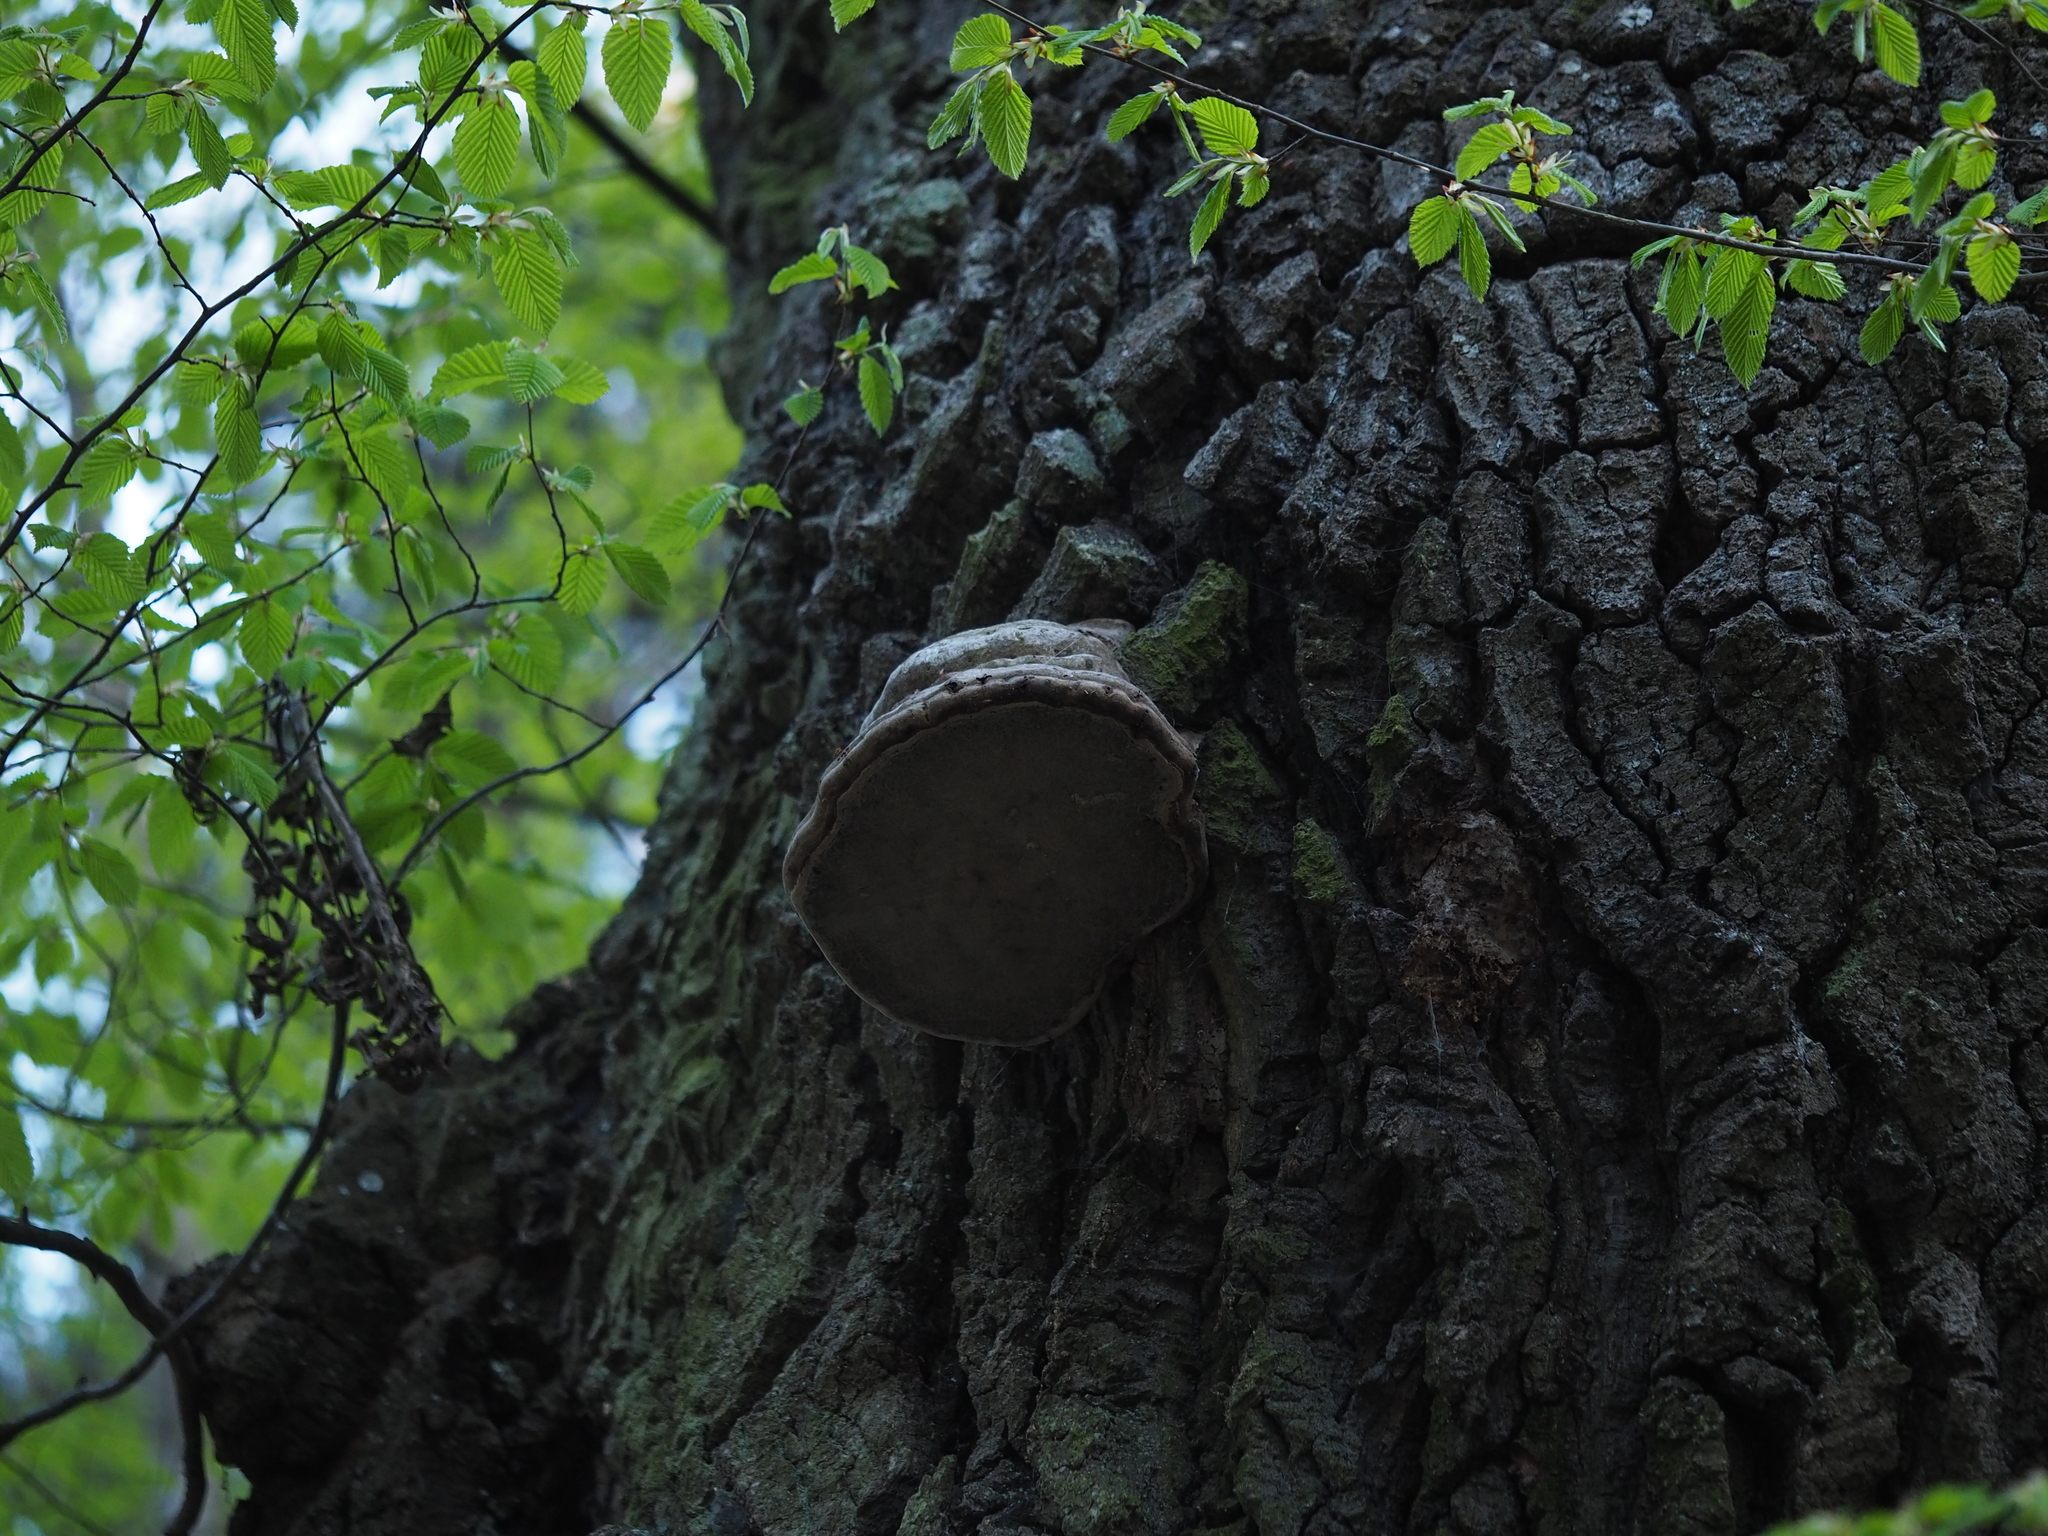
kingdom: Fungi
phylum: Basidiomycota
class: Agaricomycetes
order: Polyporales
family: Polyporaceae
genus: Fomes
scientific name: Fomes fomentarius
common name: Hoof fungus
